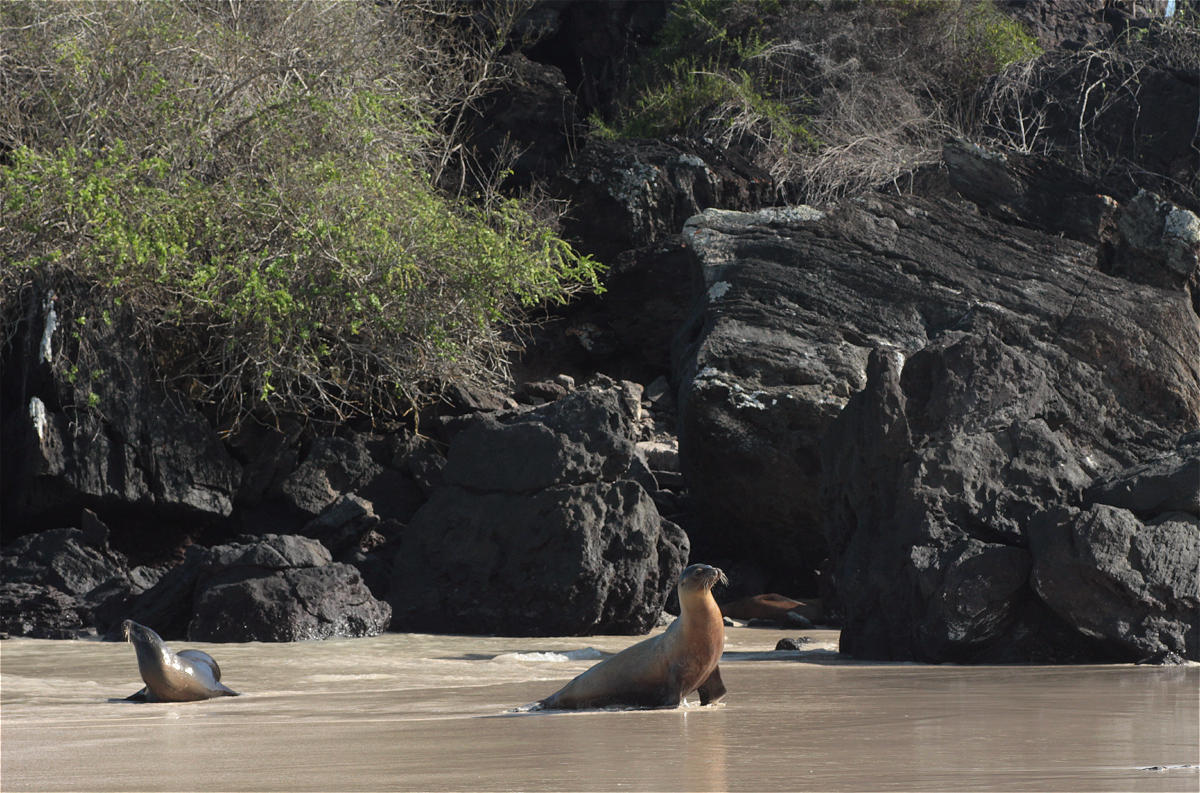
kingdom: Animalia
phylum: Chordata
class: Mammalia
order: Carnivora
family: Otariidae
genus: Zalophus
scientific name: Zalophus wollebaeki
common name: Galapagos sea lion
